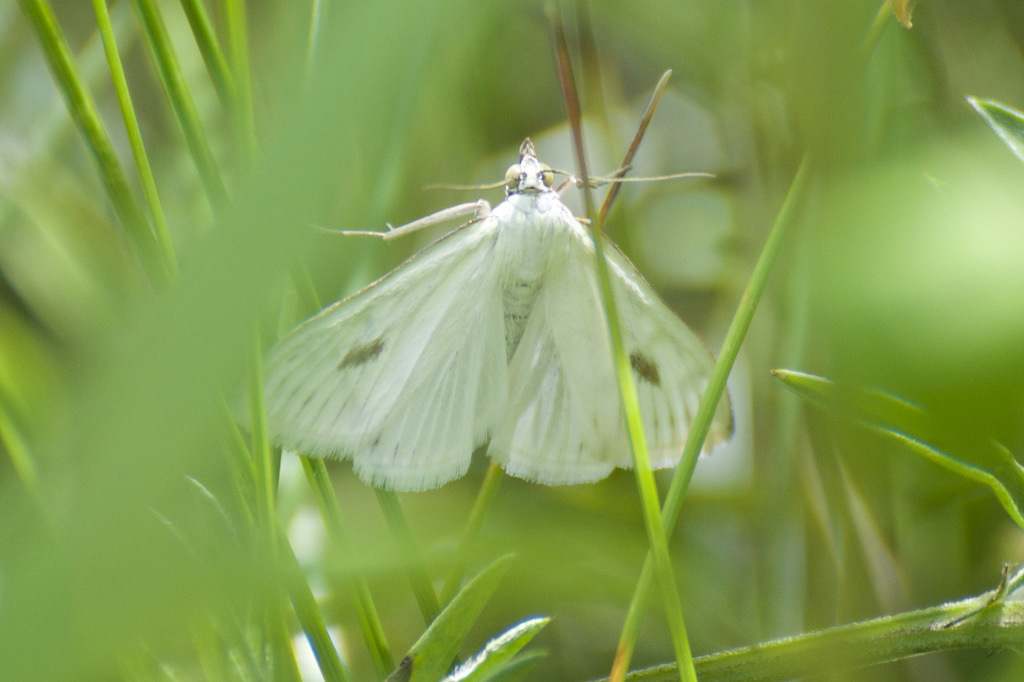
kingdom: Animalia
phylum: Arthropoda
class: Insecta
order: Lepidoptera
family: Crambidae
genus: Sitochroa
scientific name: Sitochroa palealis
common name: Greenish-yellow sitochroa moth
